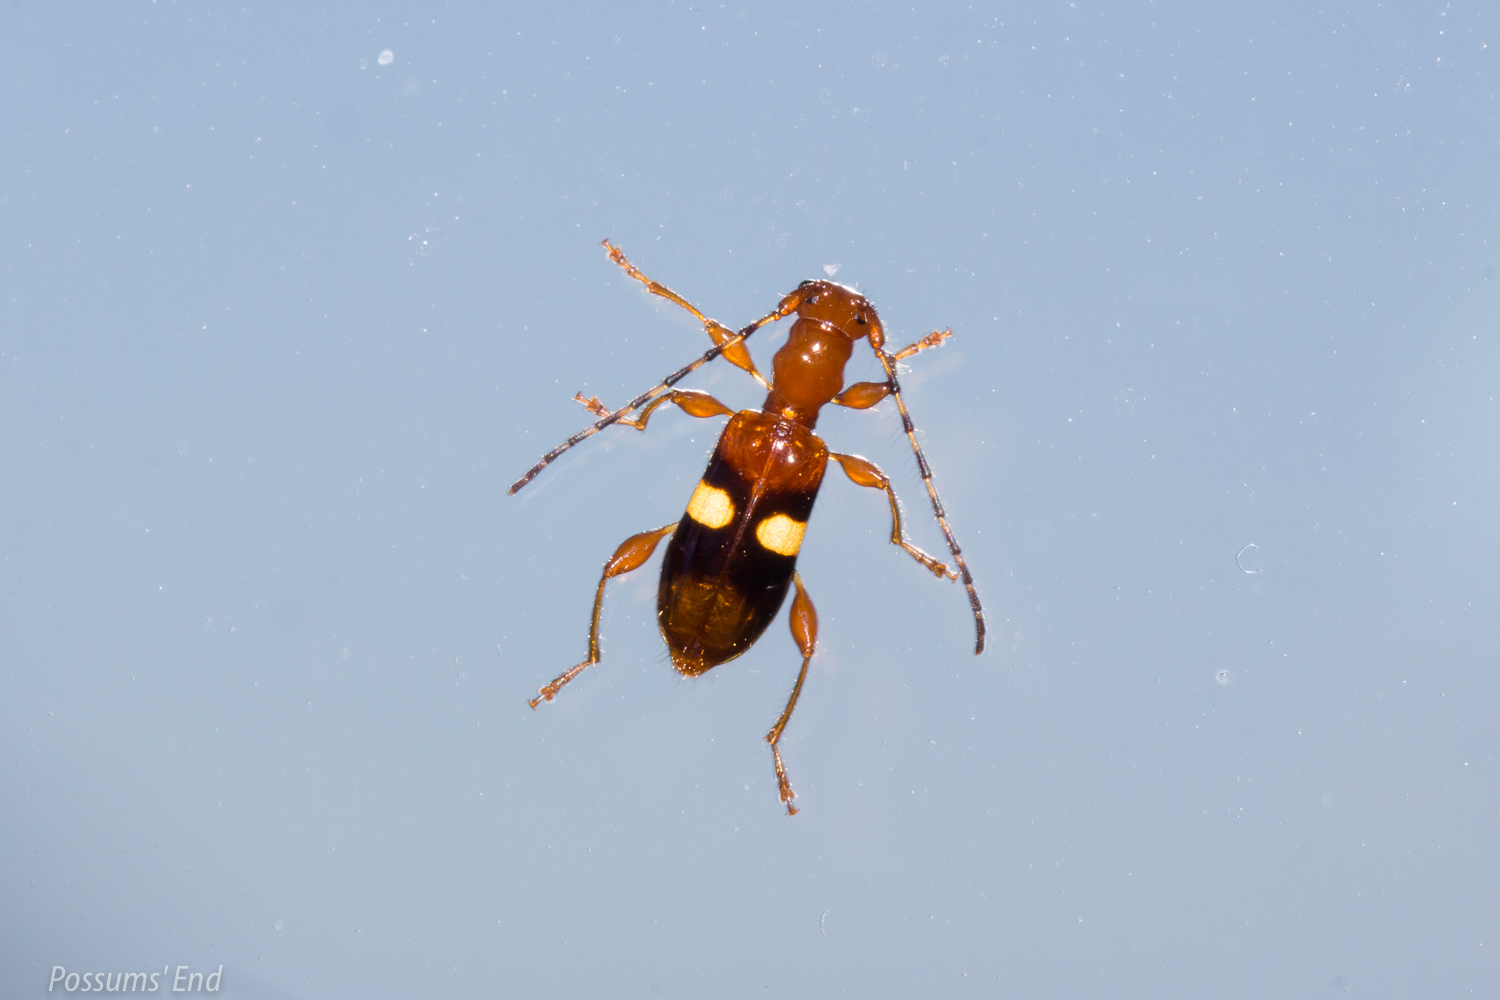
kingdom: Animalia
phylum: Arthropoda
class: Insecta
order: Coleoptera
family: Cerambycidae
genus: Zorion
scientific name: Zorion australe
